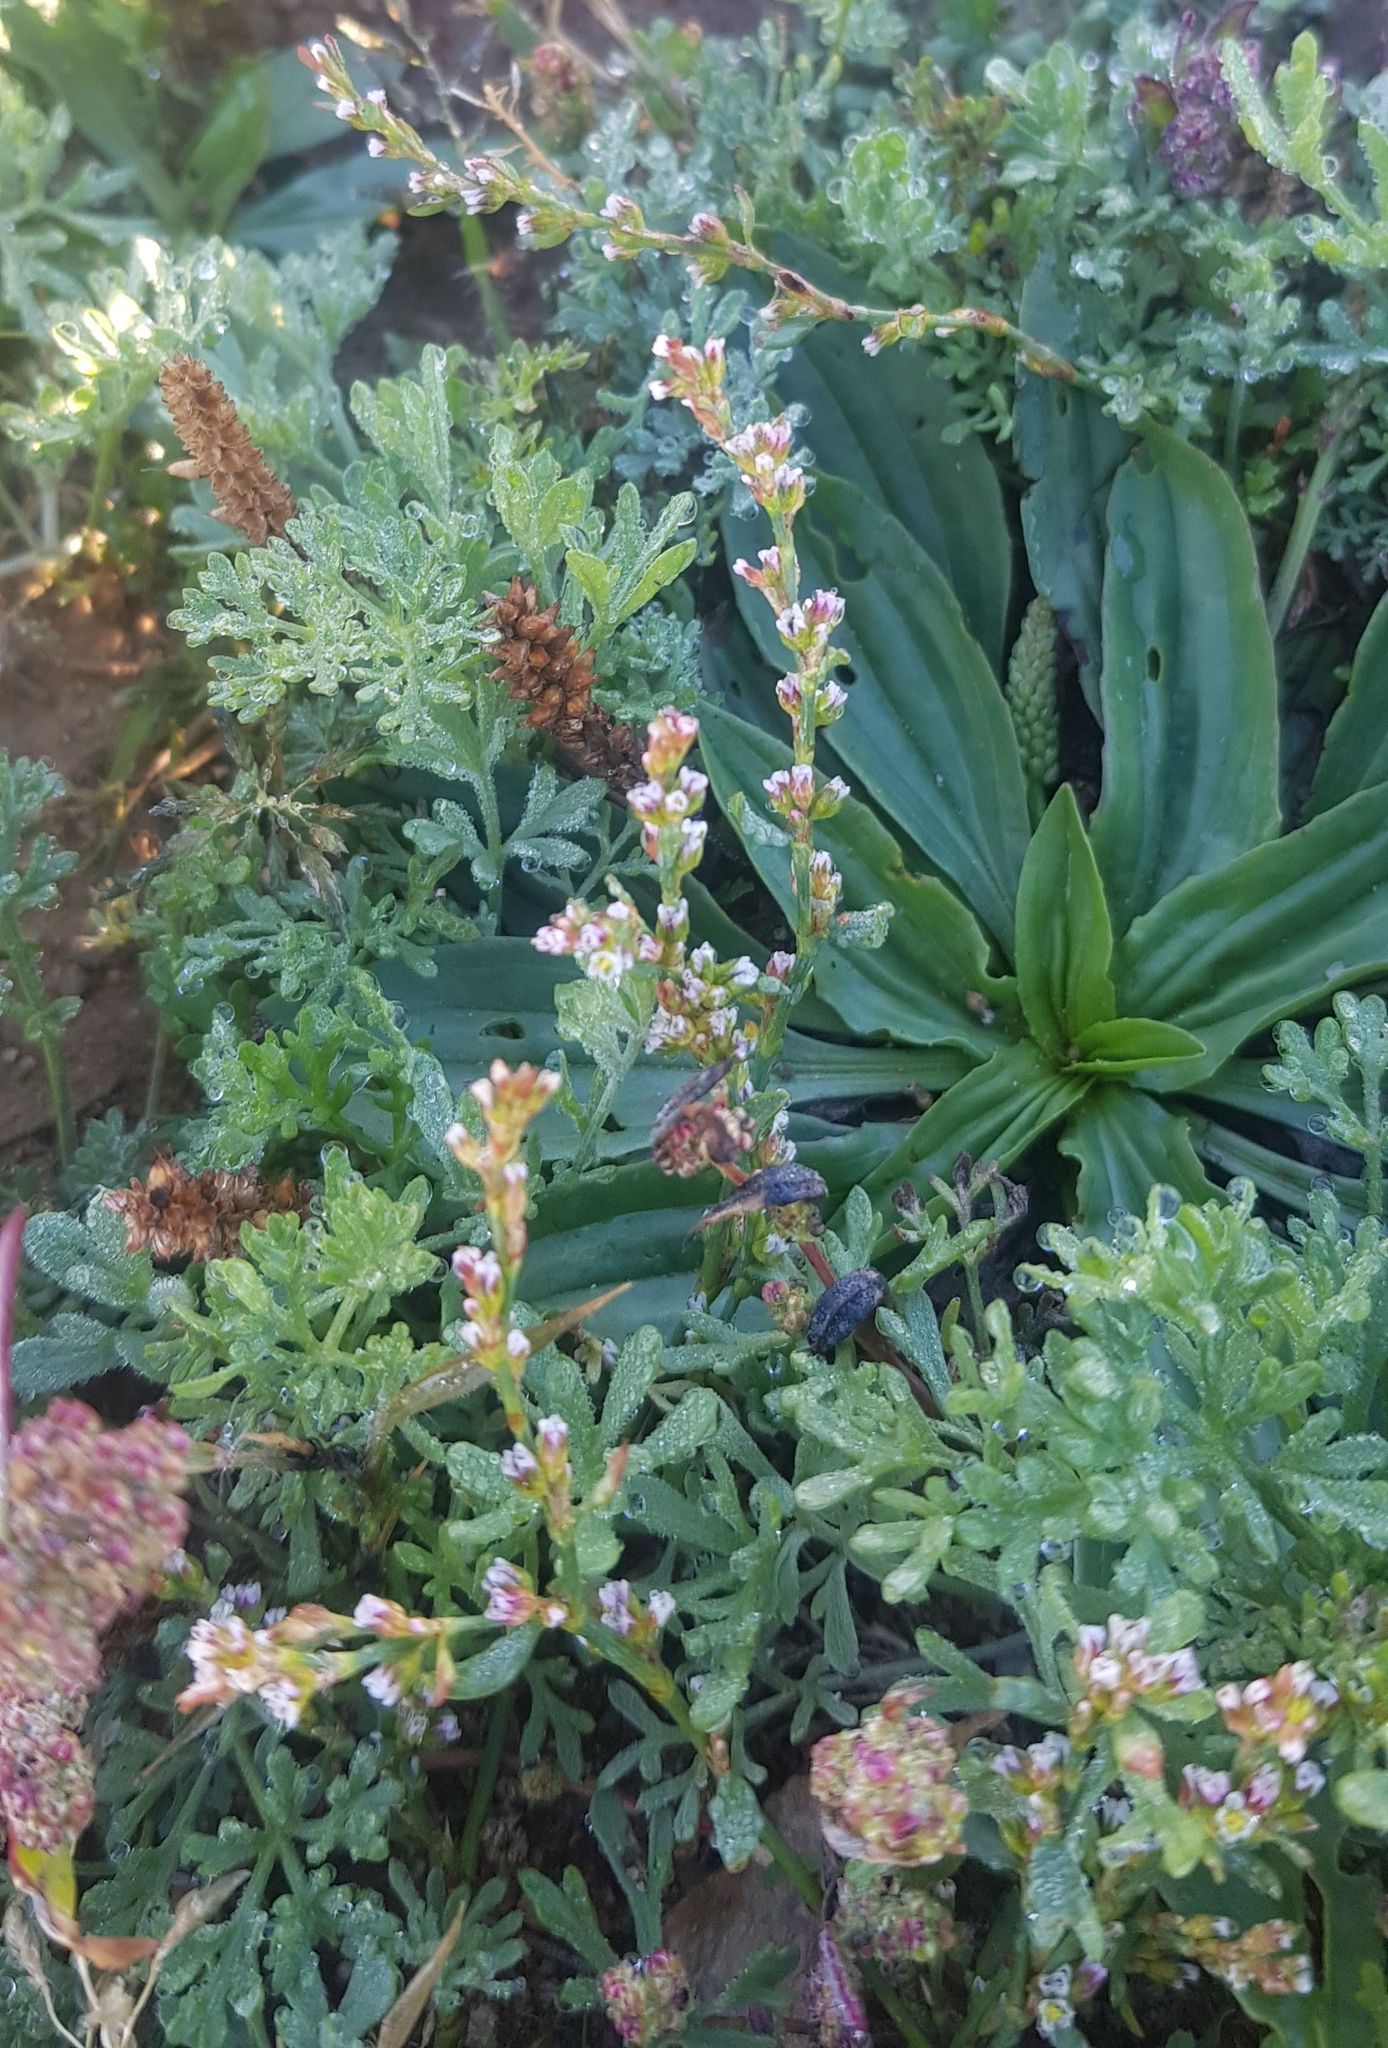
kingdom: Plantae
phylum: Tracheophyta
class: Magnoliopsida
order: Caryophyllales
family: Polygonaceae
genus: Polygonum
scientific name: Polygonum aviculare
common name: Prostrate knotweed
